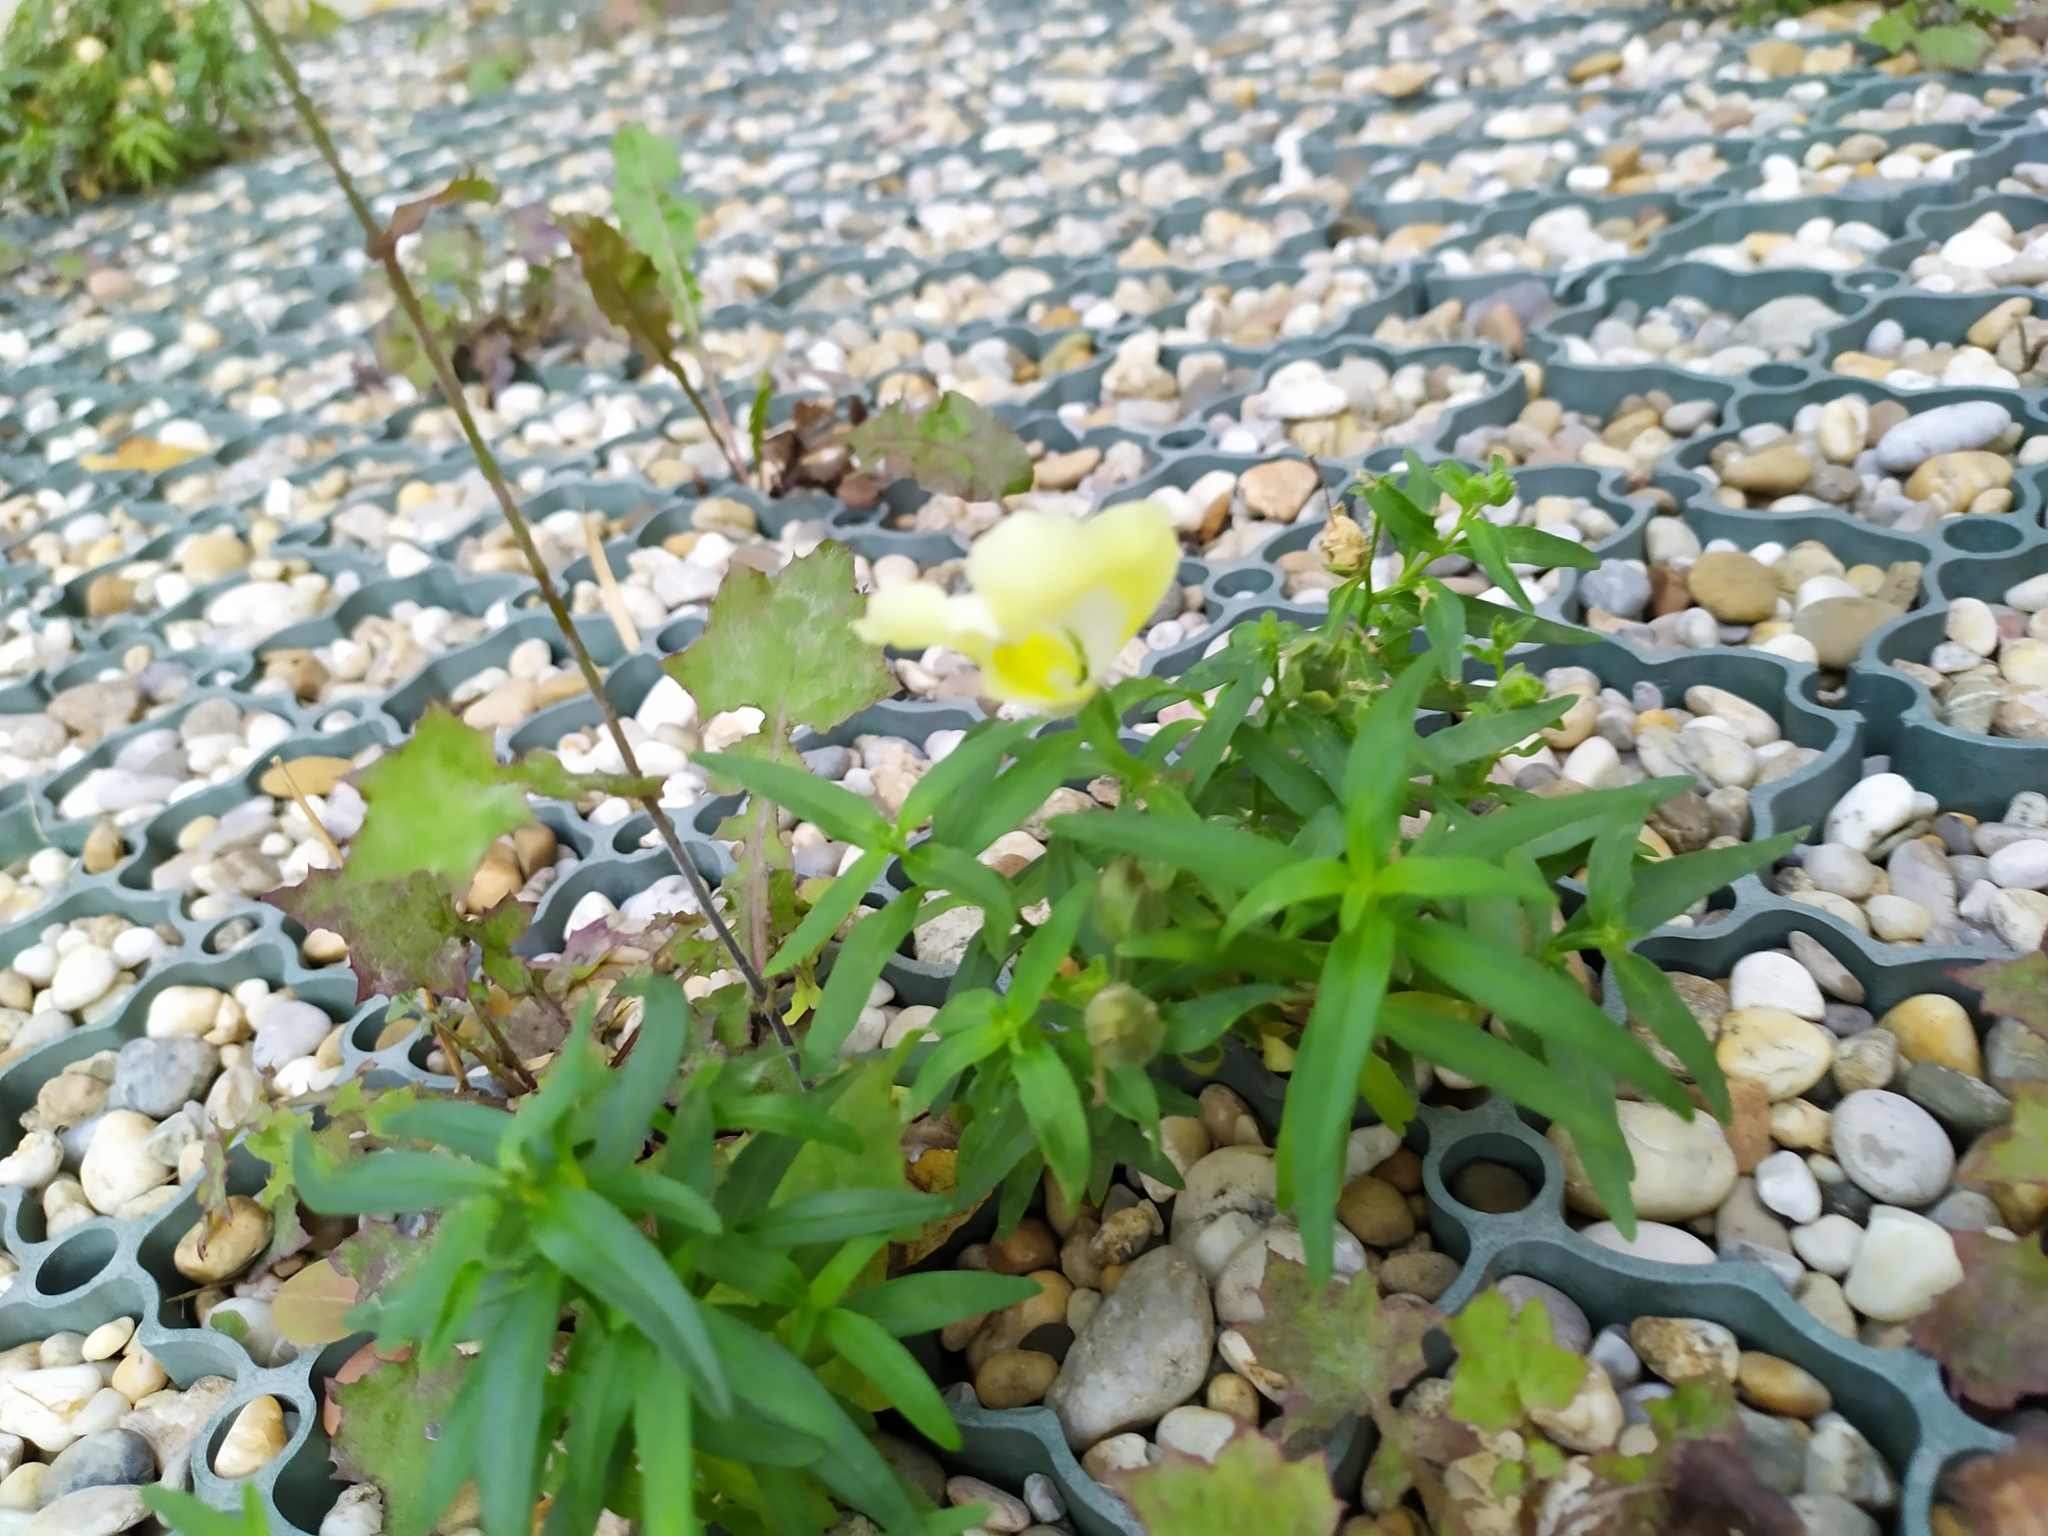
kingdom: Plantae
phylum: Tracheophyta
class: Magnoliopsida
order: Lamiales
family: Plantaginaceae
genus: Antirrhinum
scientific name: Antirrhinum majus
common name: Snapdragon
